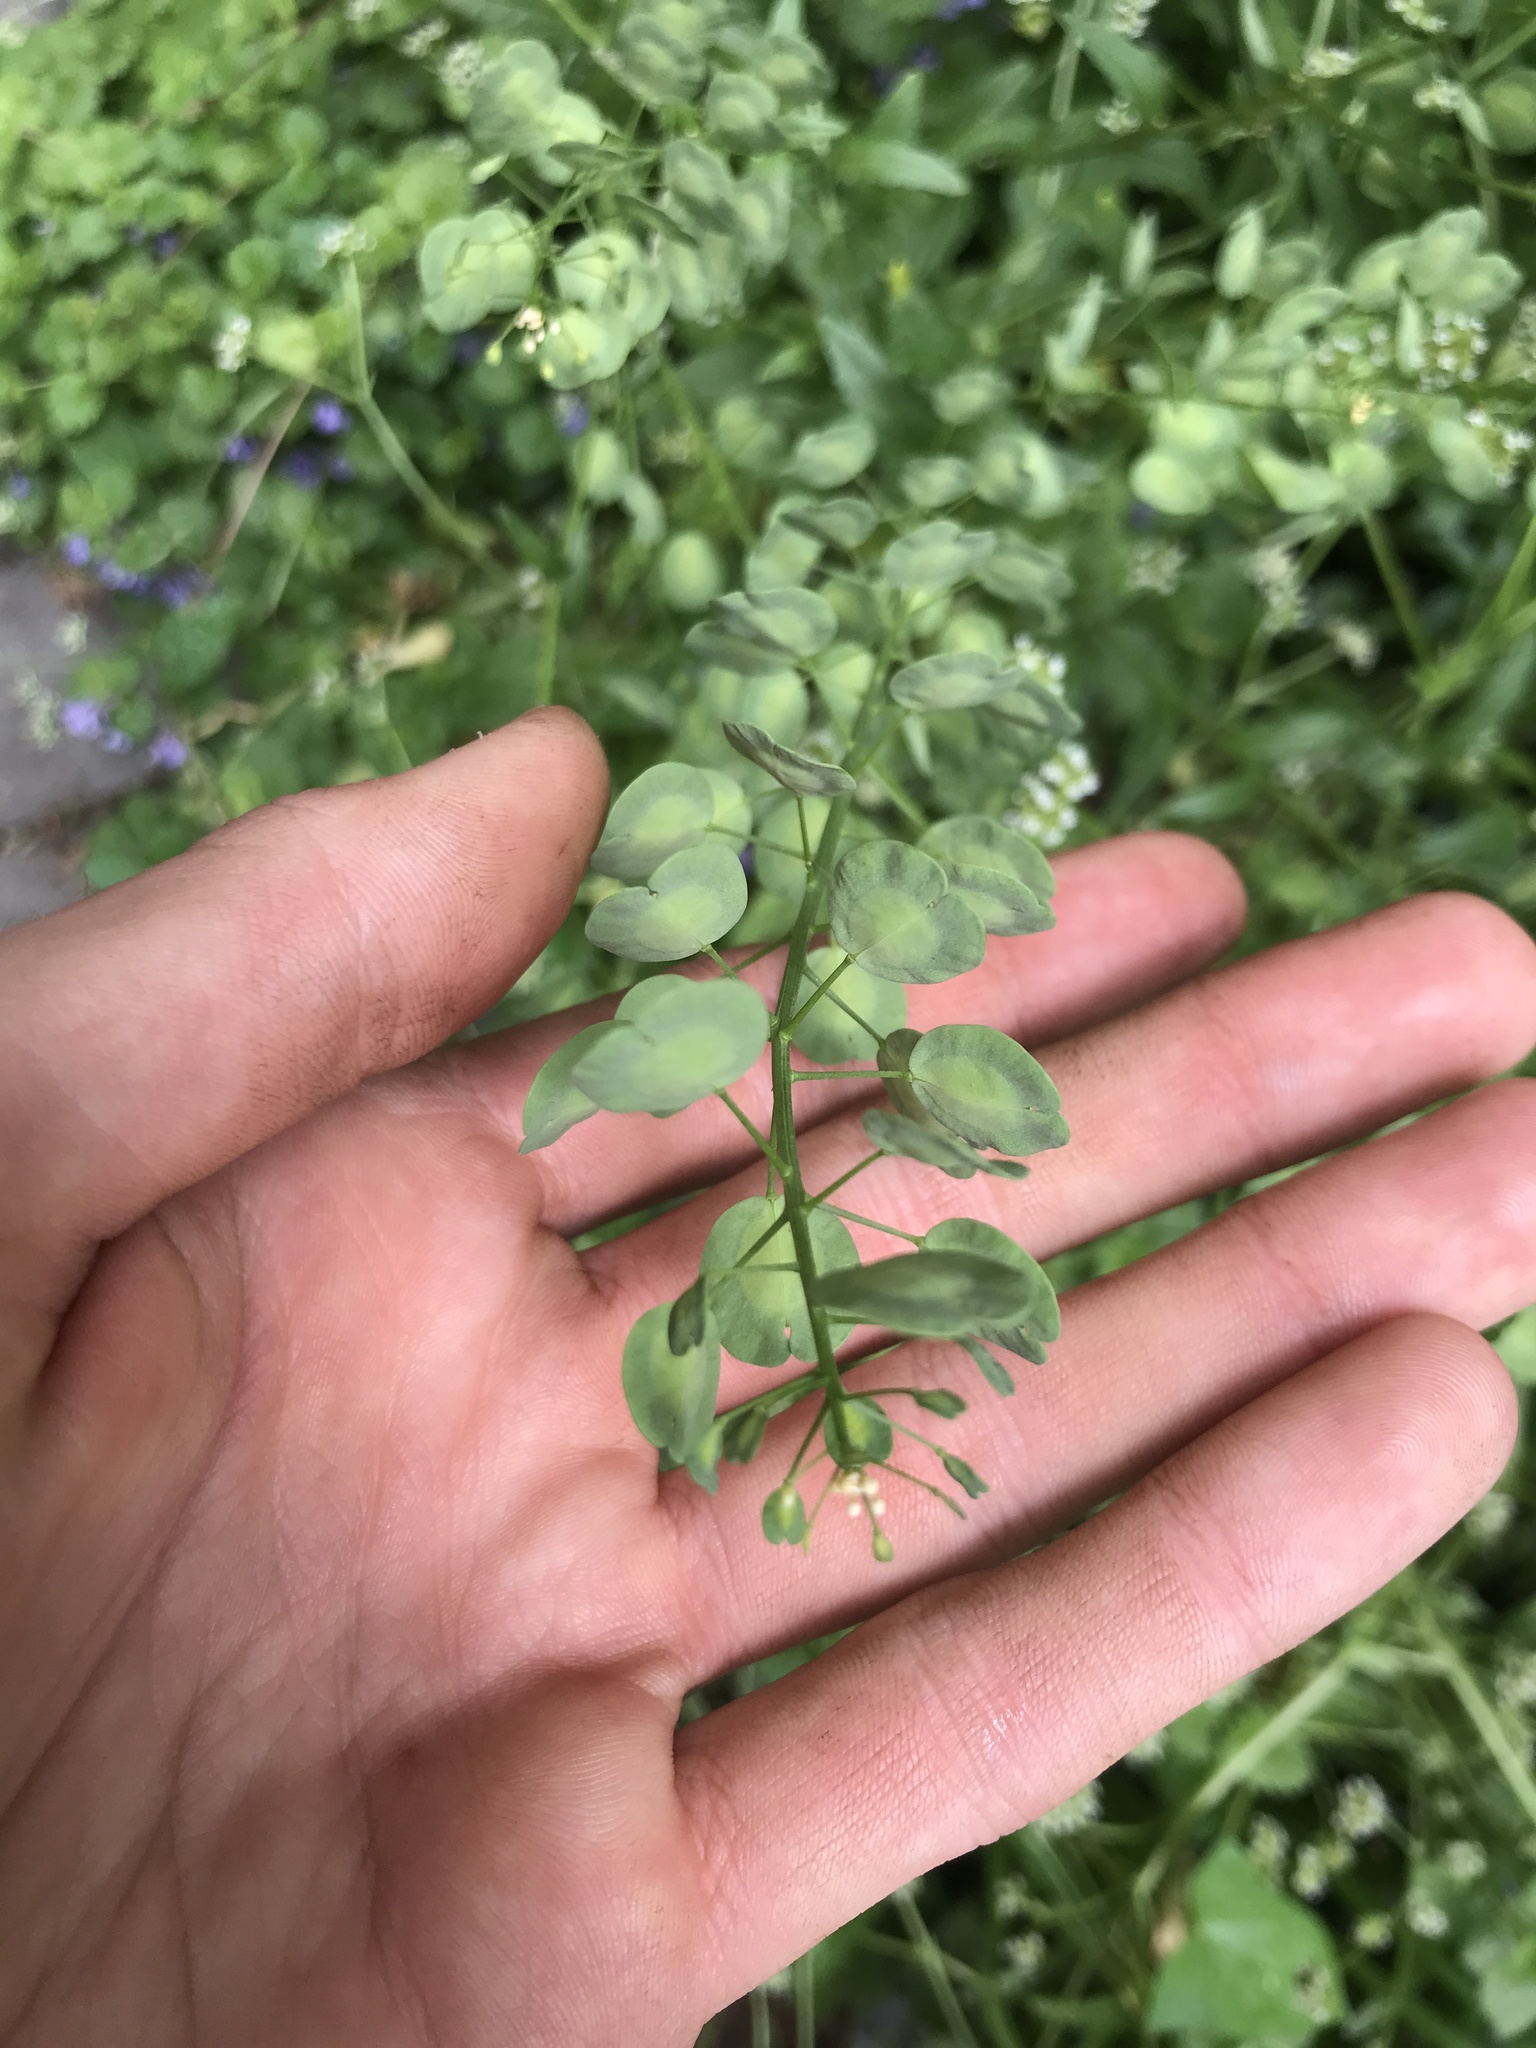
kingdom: Plantae
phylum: Tracheophyta
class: Magnoliopsida
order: Brassicales
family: Brassicaceae
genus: Thlaspi
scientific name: Thlaspi arvense
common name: Field pennycress
